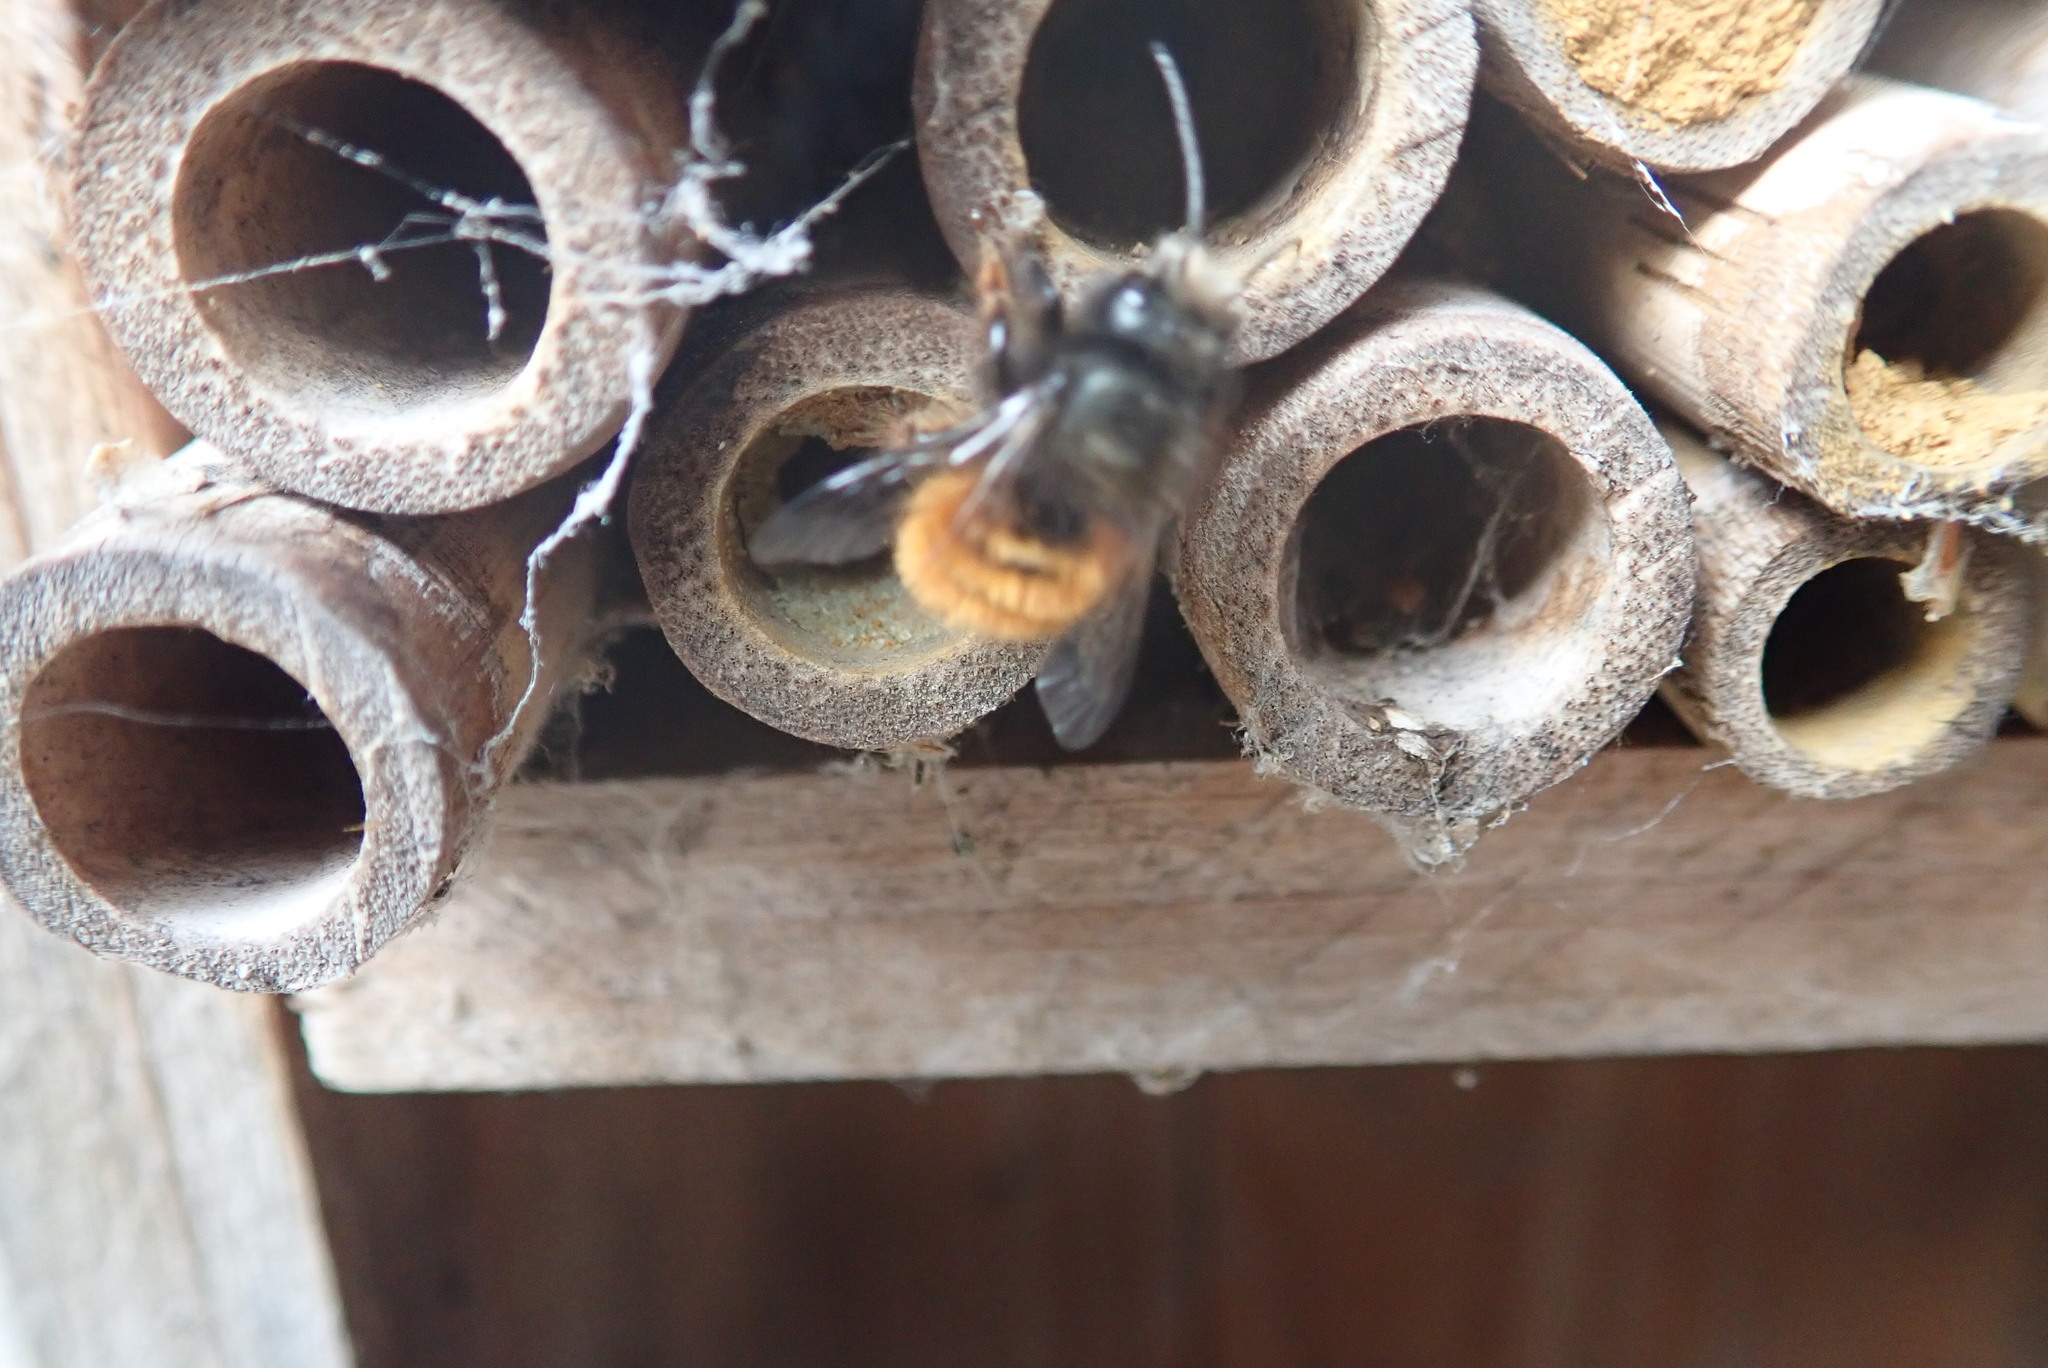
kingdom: Animalia
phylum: Arthropoda
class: Insecta
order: Hymenoptera
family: Megachilidae
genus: Osmia
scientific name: Osmia cornuta
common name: Mason bee
